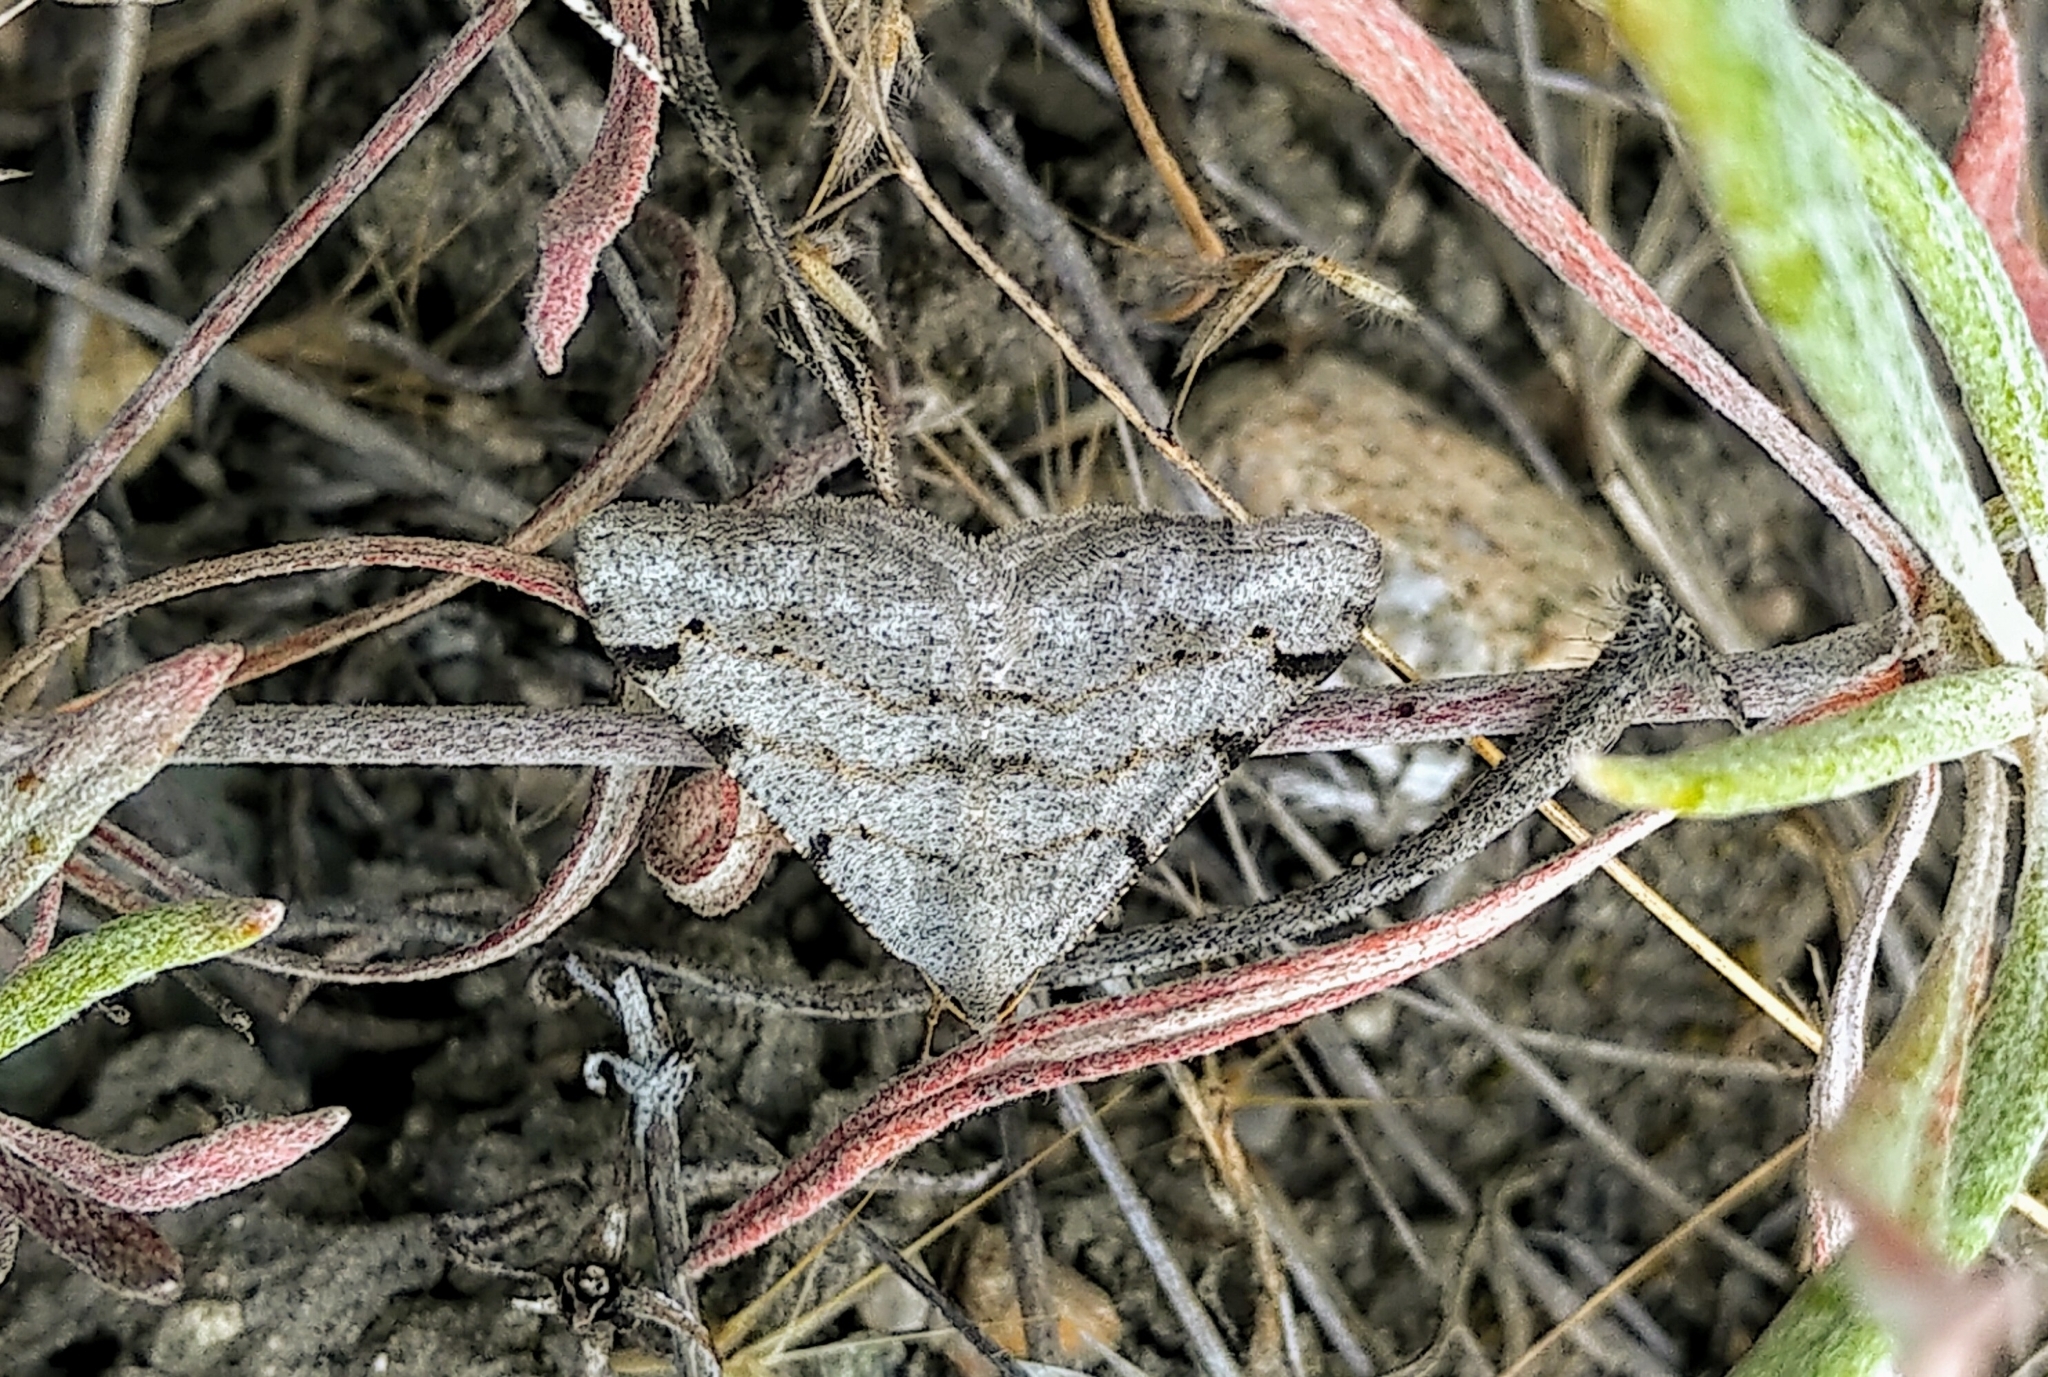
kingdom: Animalia
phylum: Arthropoda
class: Insecta
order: Lepidoptera
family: Geometridae
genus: Digrammia
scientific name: Digrammia denticulata
